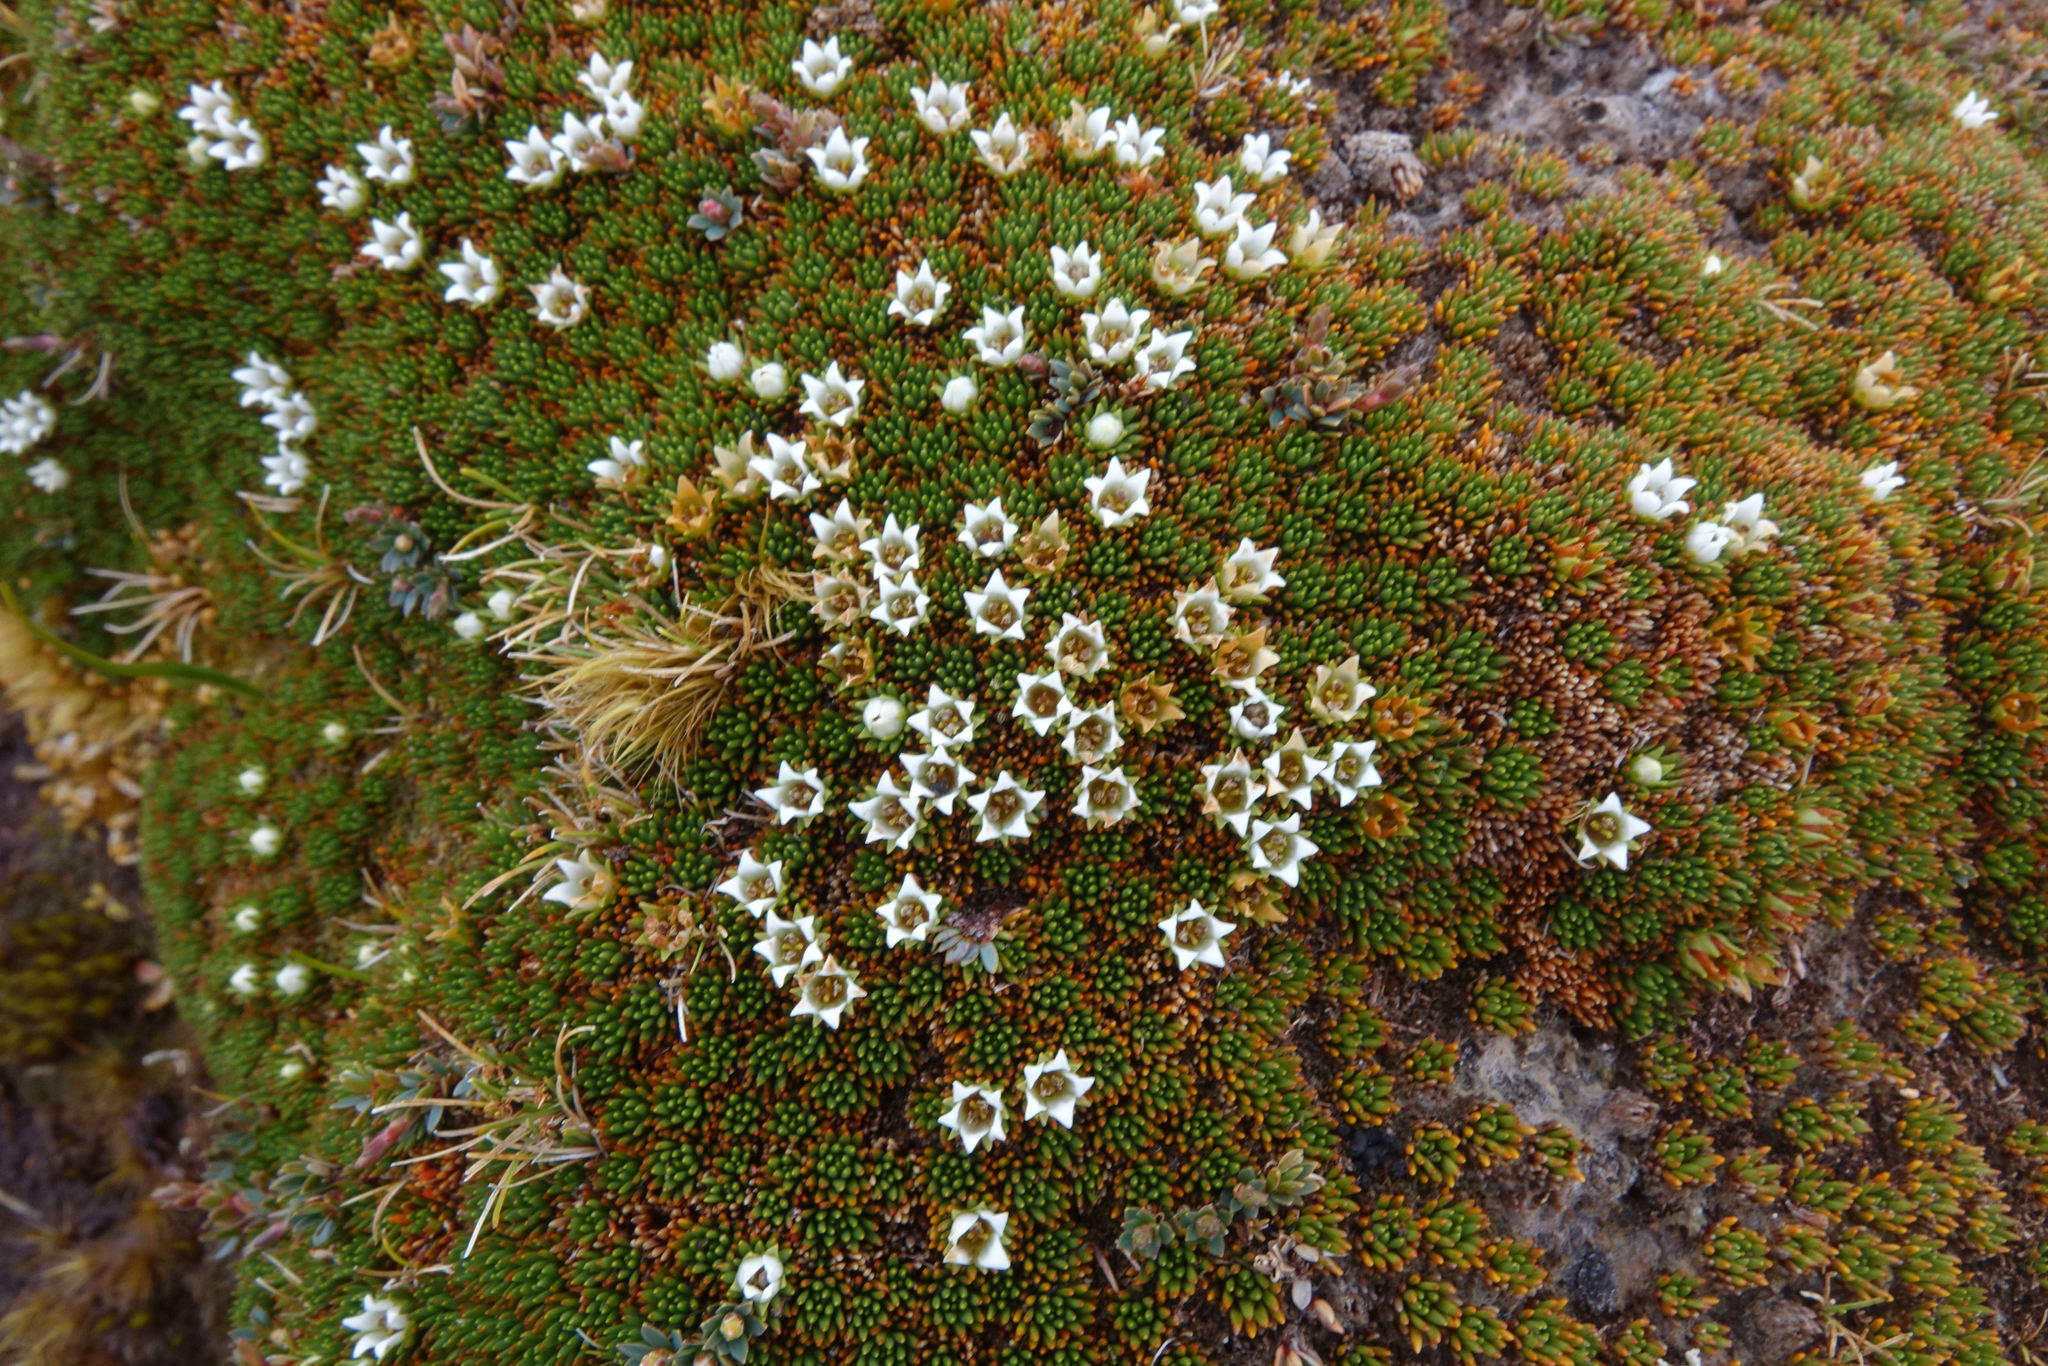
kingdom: Plantae
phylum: Tracheophyta
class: Magnoliopsida
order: Asterales
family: Stylidiaceae
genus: Donatia
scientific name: Donatia novae-zelandiae
